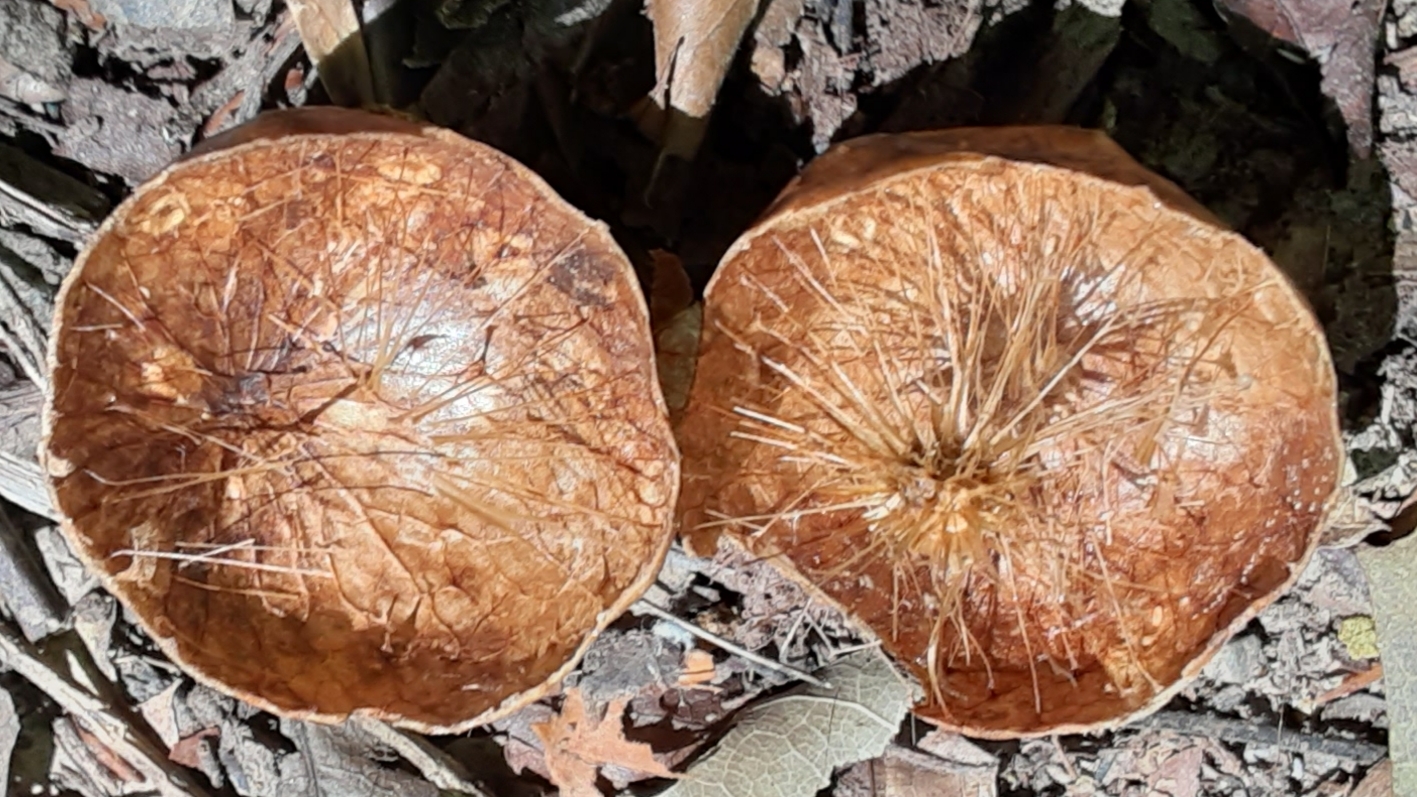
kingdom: Animalia
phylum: Arthropoda
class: Insecta
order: Hymenoptera
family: Cynipidae
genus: Amphibolips
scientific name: Amphibolips
